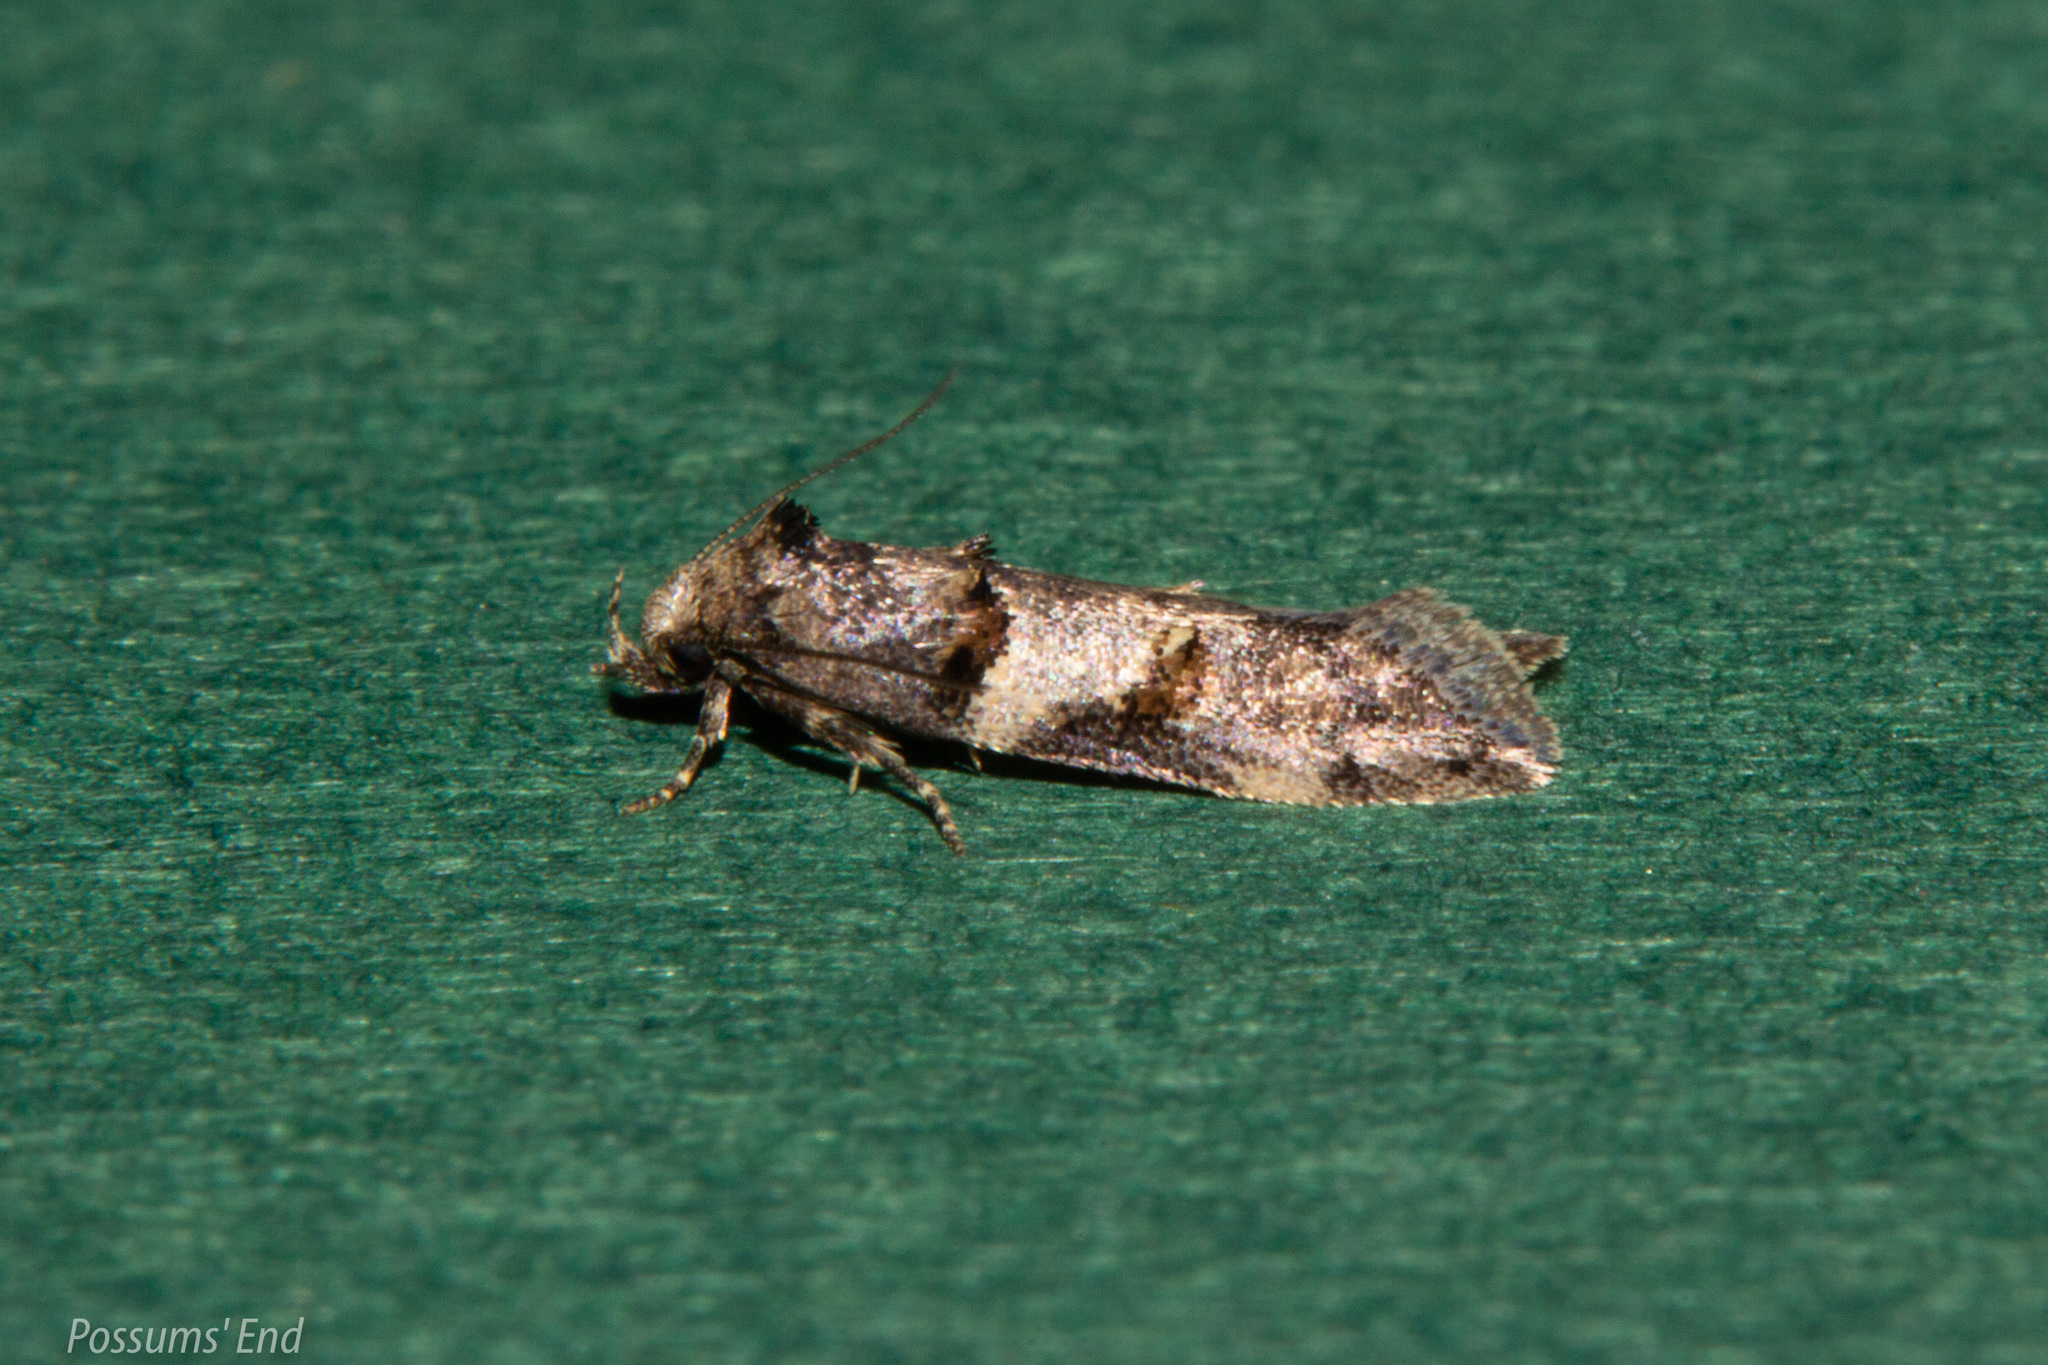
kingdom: Animalia
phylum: Arthropoda
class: Insecta
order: Lepidoptera
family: Oecophoridae
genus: Trachypepla
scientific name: Trachypepla contritella
